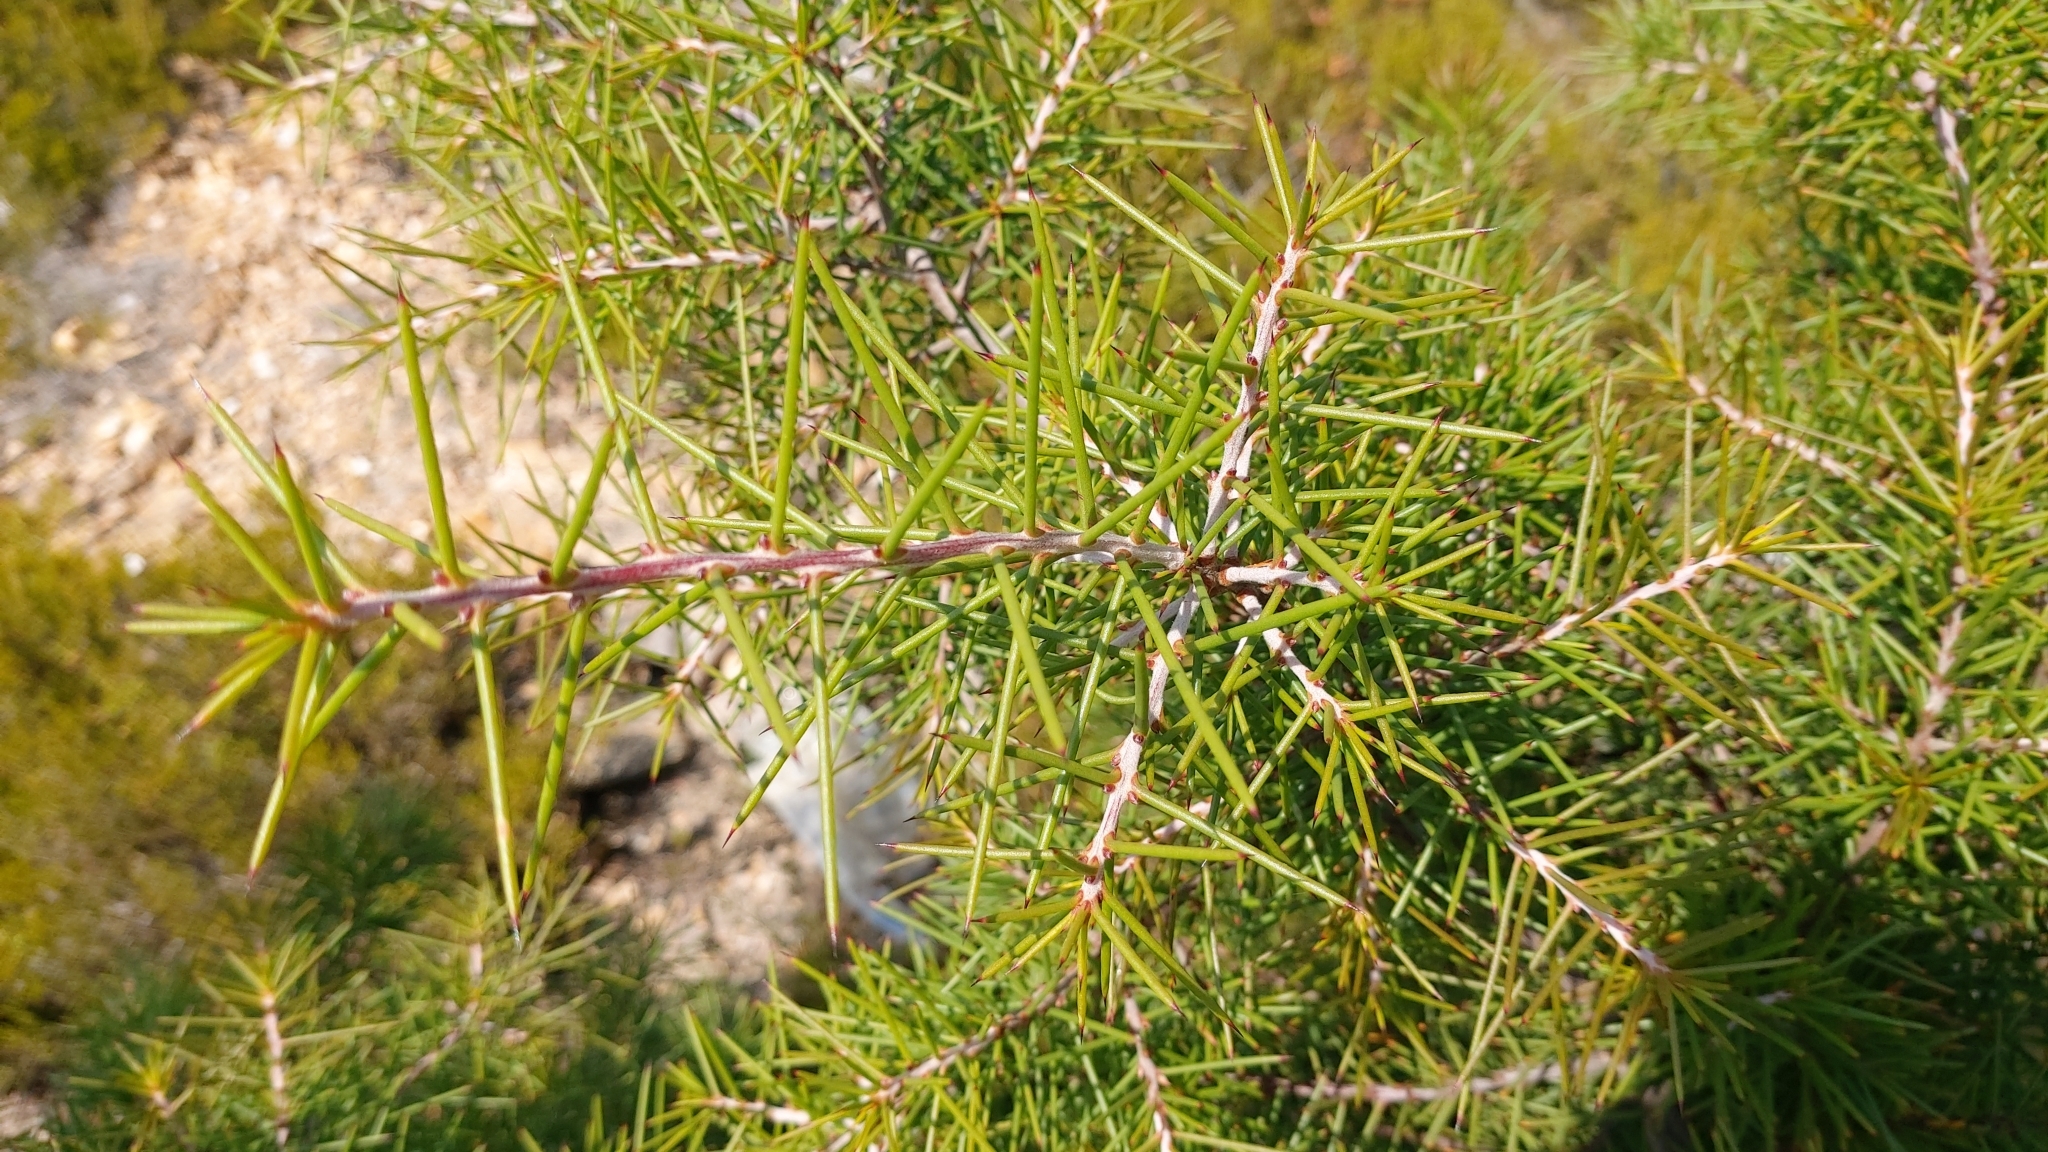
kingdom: Plantae
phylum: Tracheophyta
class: Magnoliopsida
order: Proteales
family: Proteaceae
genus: Hakea
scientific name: Hakea decurrens
